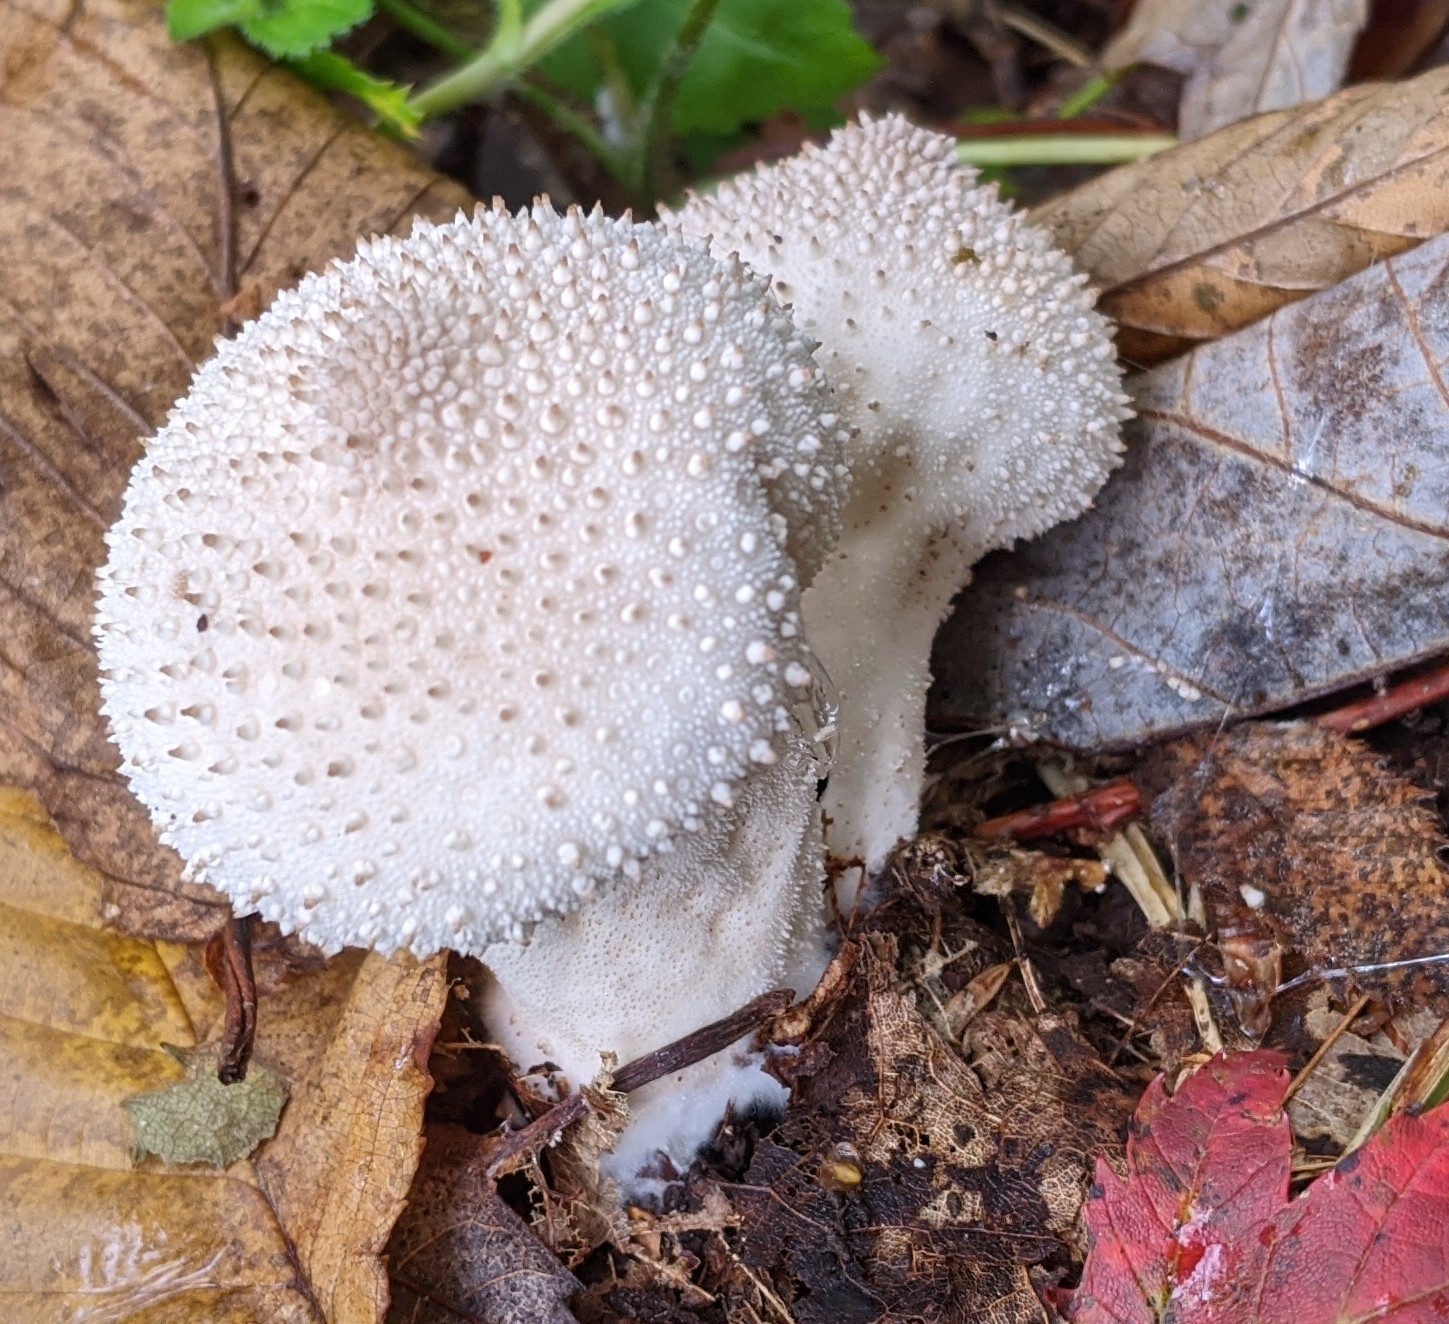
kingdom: Fungi
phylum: Basidiomycota
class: Agaricomycetes
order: Agaricales
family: Lycoperdaceae
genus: Lycoperdon
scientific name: Lycoperdon perlatum
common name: Common puffball
